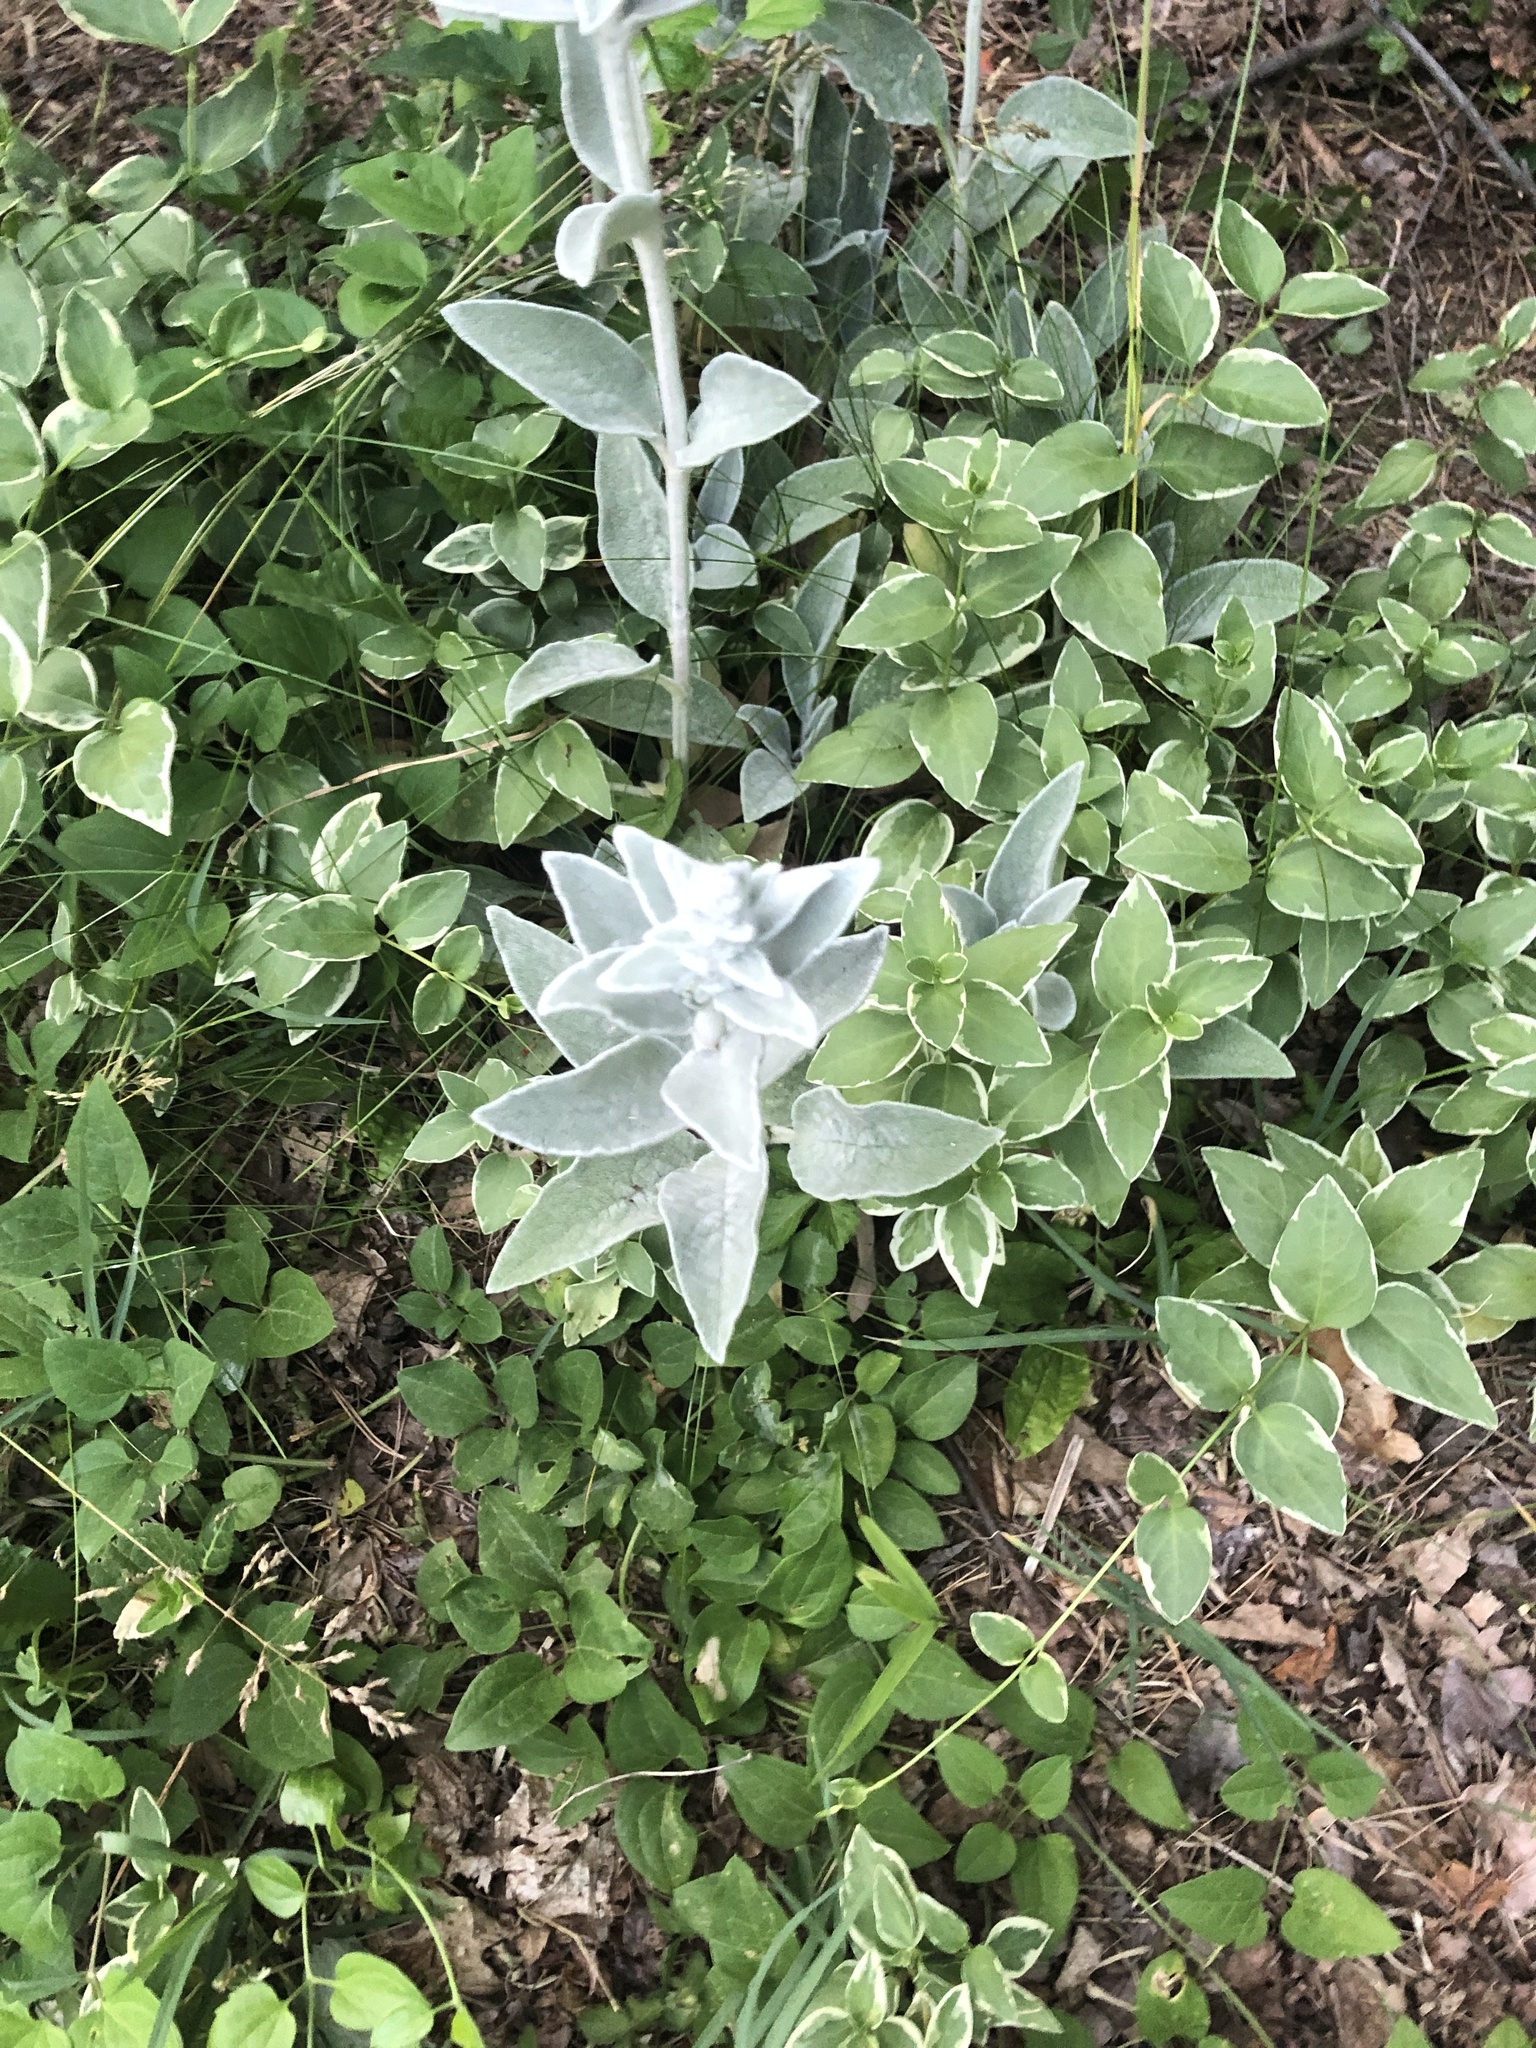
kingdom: Plantae
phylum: Tracheophyta
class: Magnoliopsida
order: Lamiales
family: Lamiaceae
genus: Stachys
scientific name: Stachys byzantina
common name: Lamb's-ear
